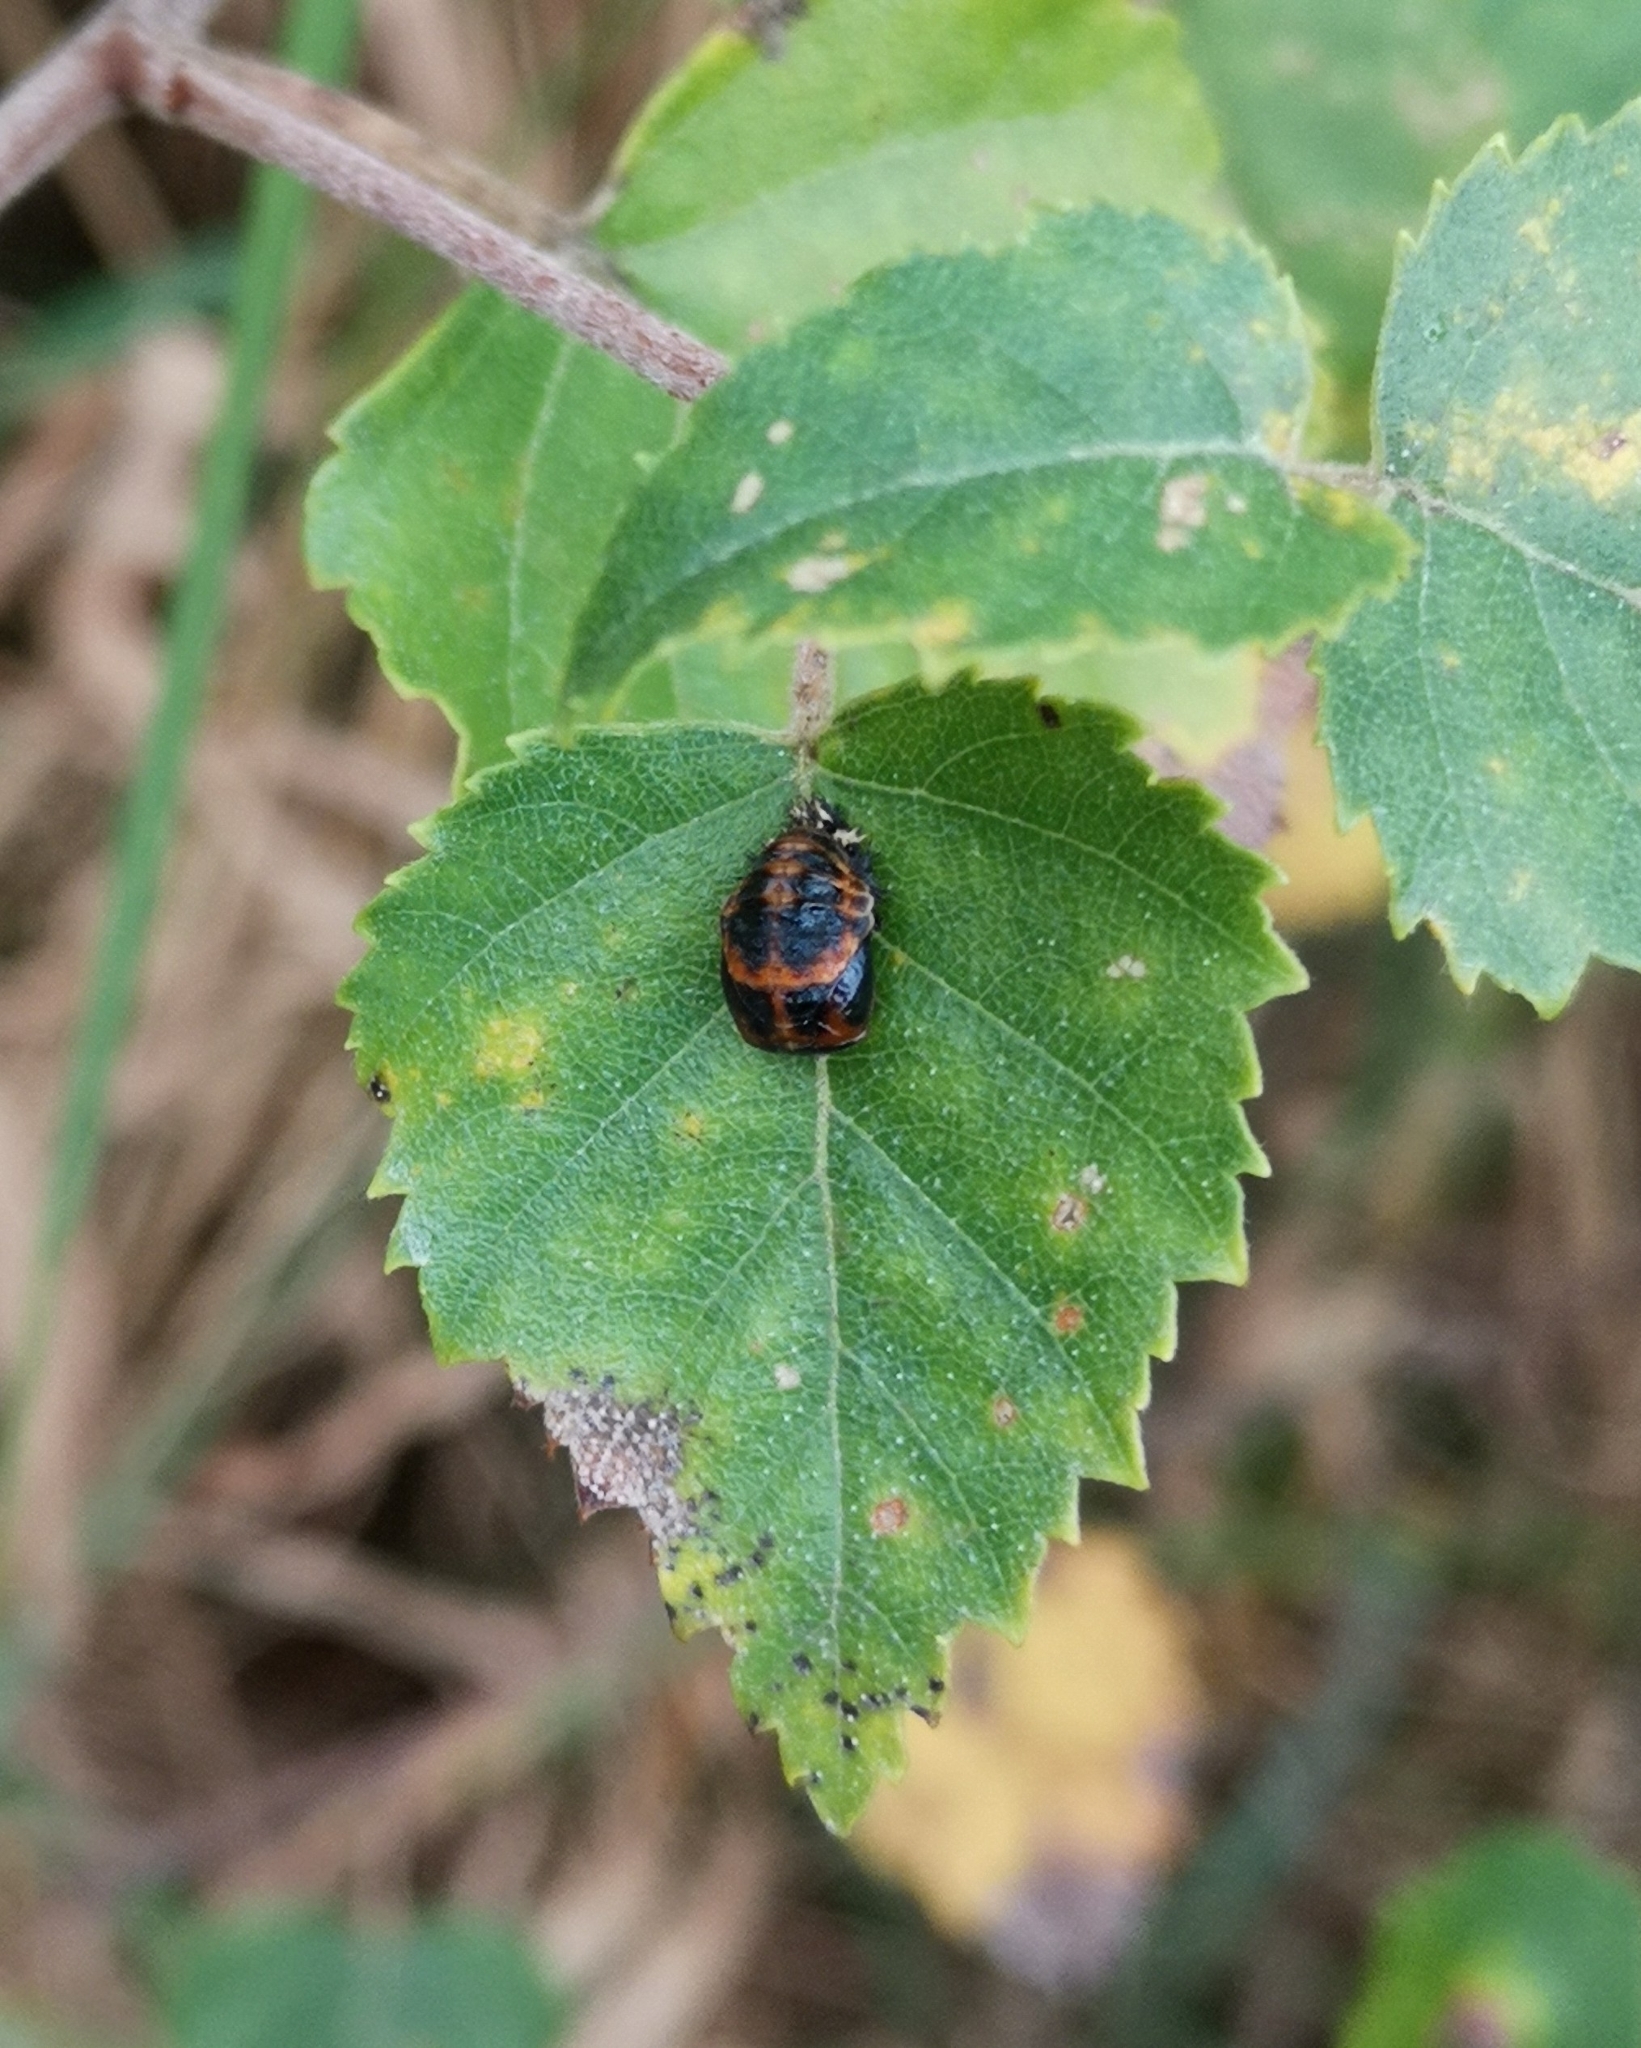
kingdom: Animalia
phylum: Arthropoda
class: Insecta
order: Coleoptera
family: Coccinellidae
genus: Harmonia
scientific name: Harmonia axyridis
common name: Harlequin ladybird
